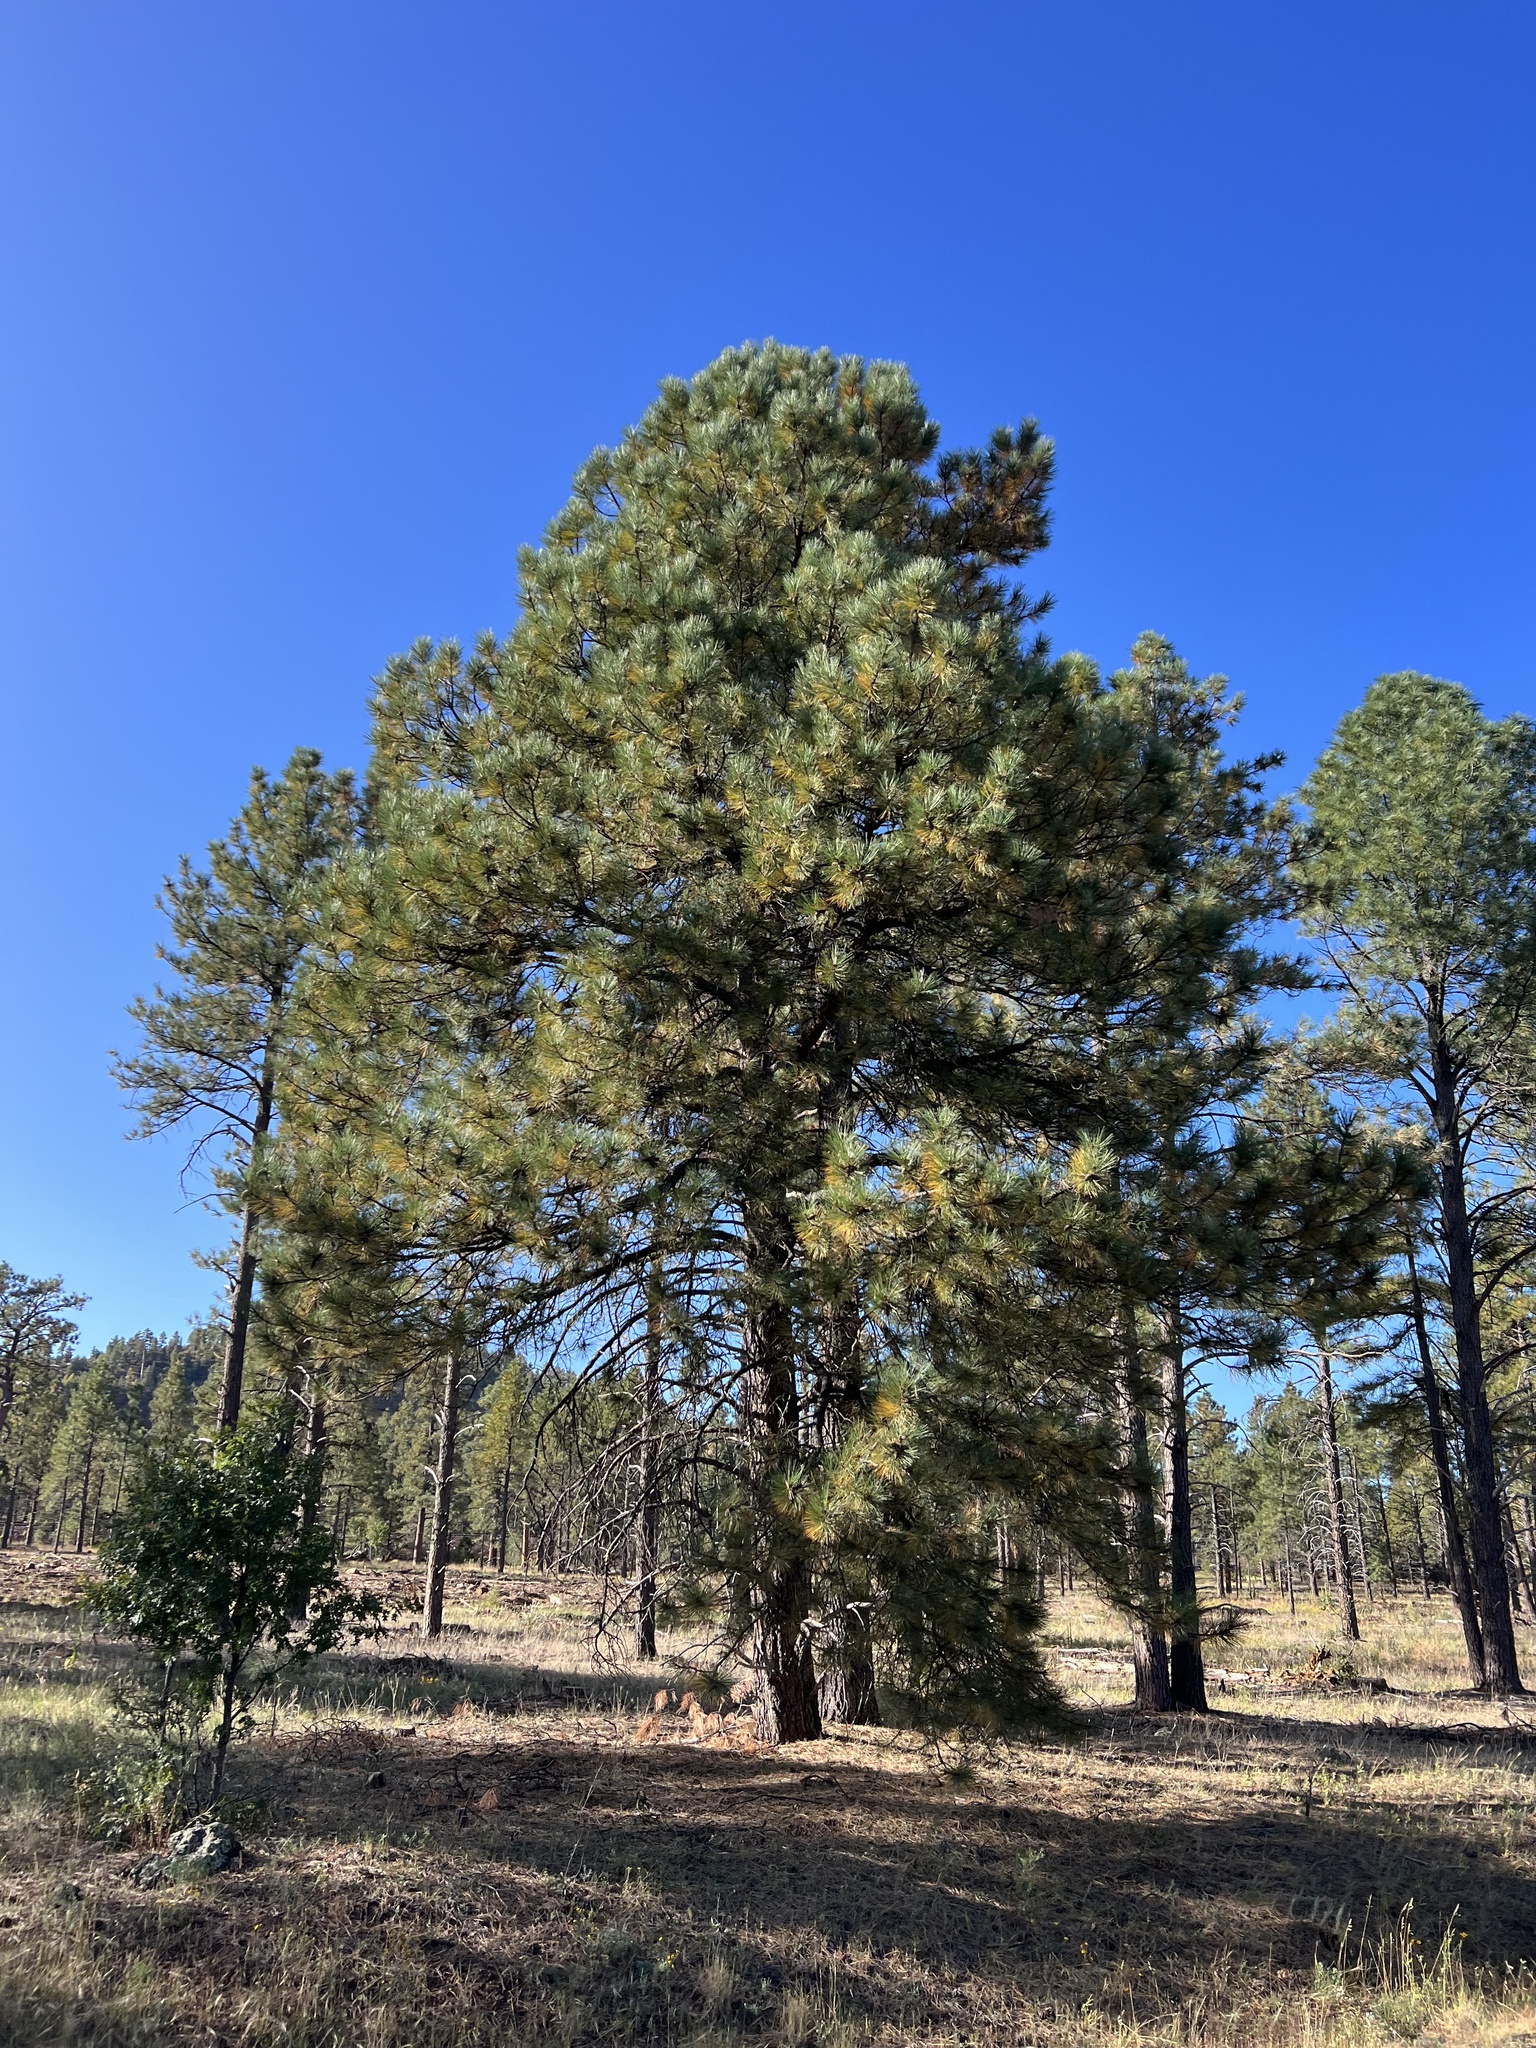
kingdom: Plantae
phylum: Tracheophyta
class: Pinopsida
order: Pinales
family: Pinaceae
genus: Pinus
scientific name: Pinus ponderosa
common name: Western yellow-pine
